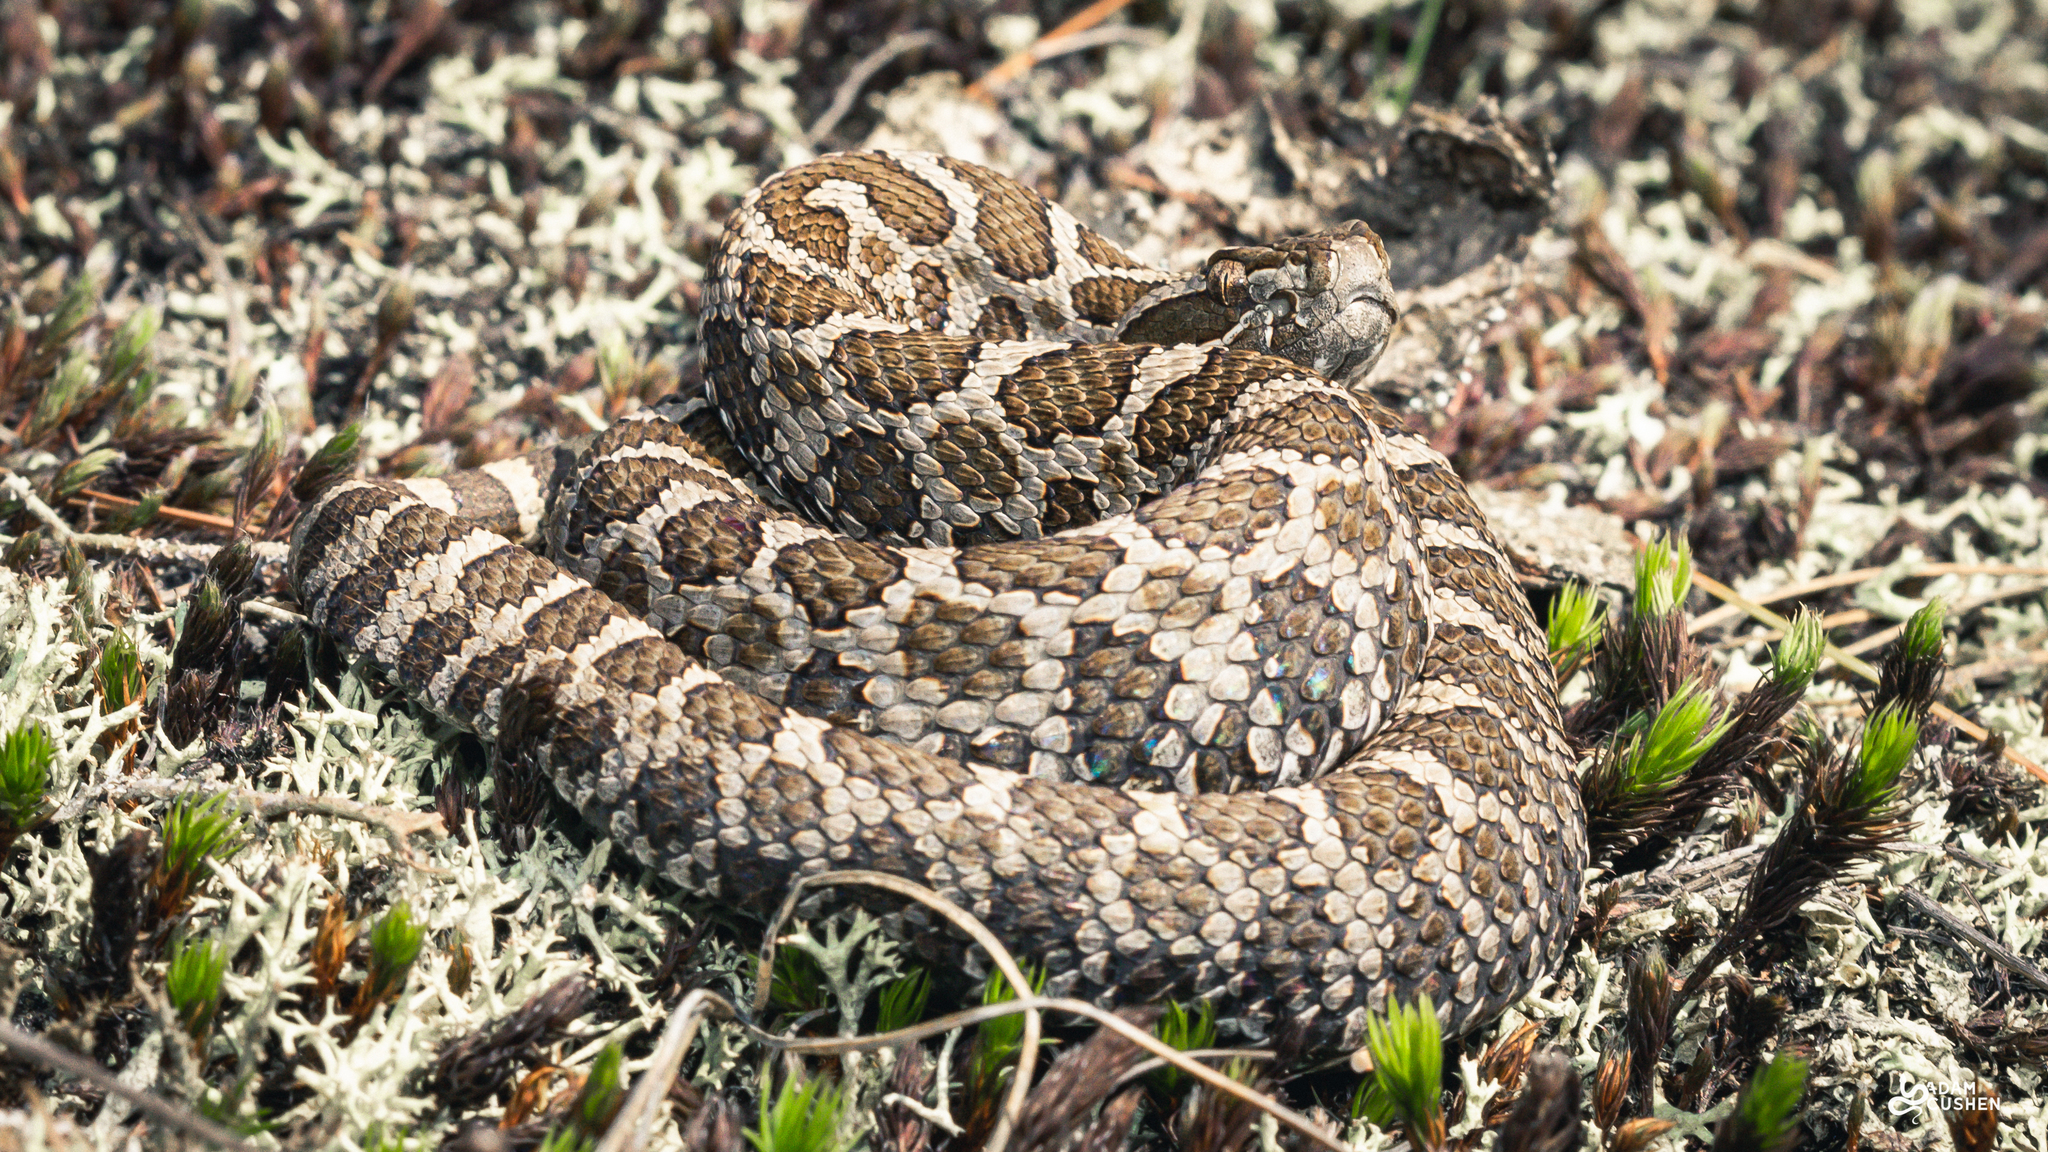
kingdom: Animalia
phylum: Chordata
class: Squamata
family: Viperidae
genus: Sistrurus
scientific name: Sistrurus catenatus
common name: Massasauga
